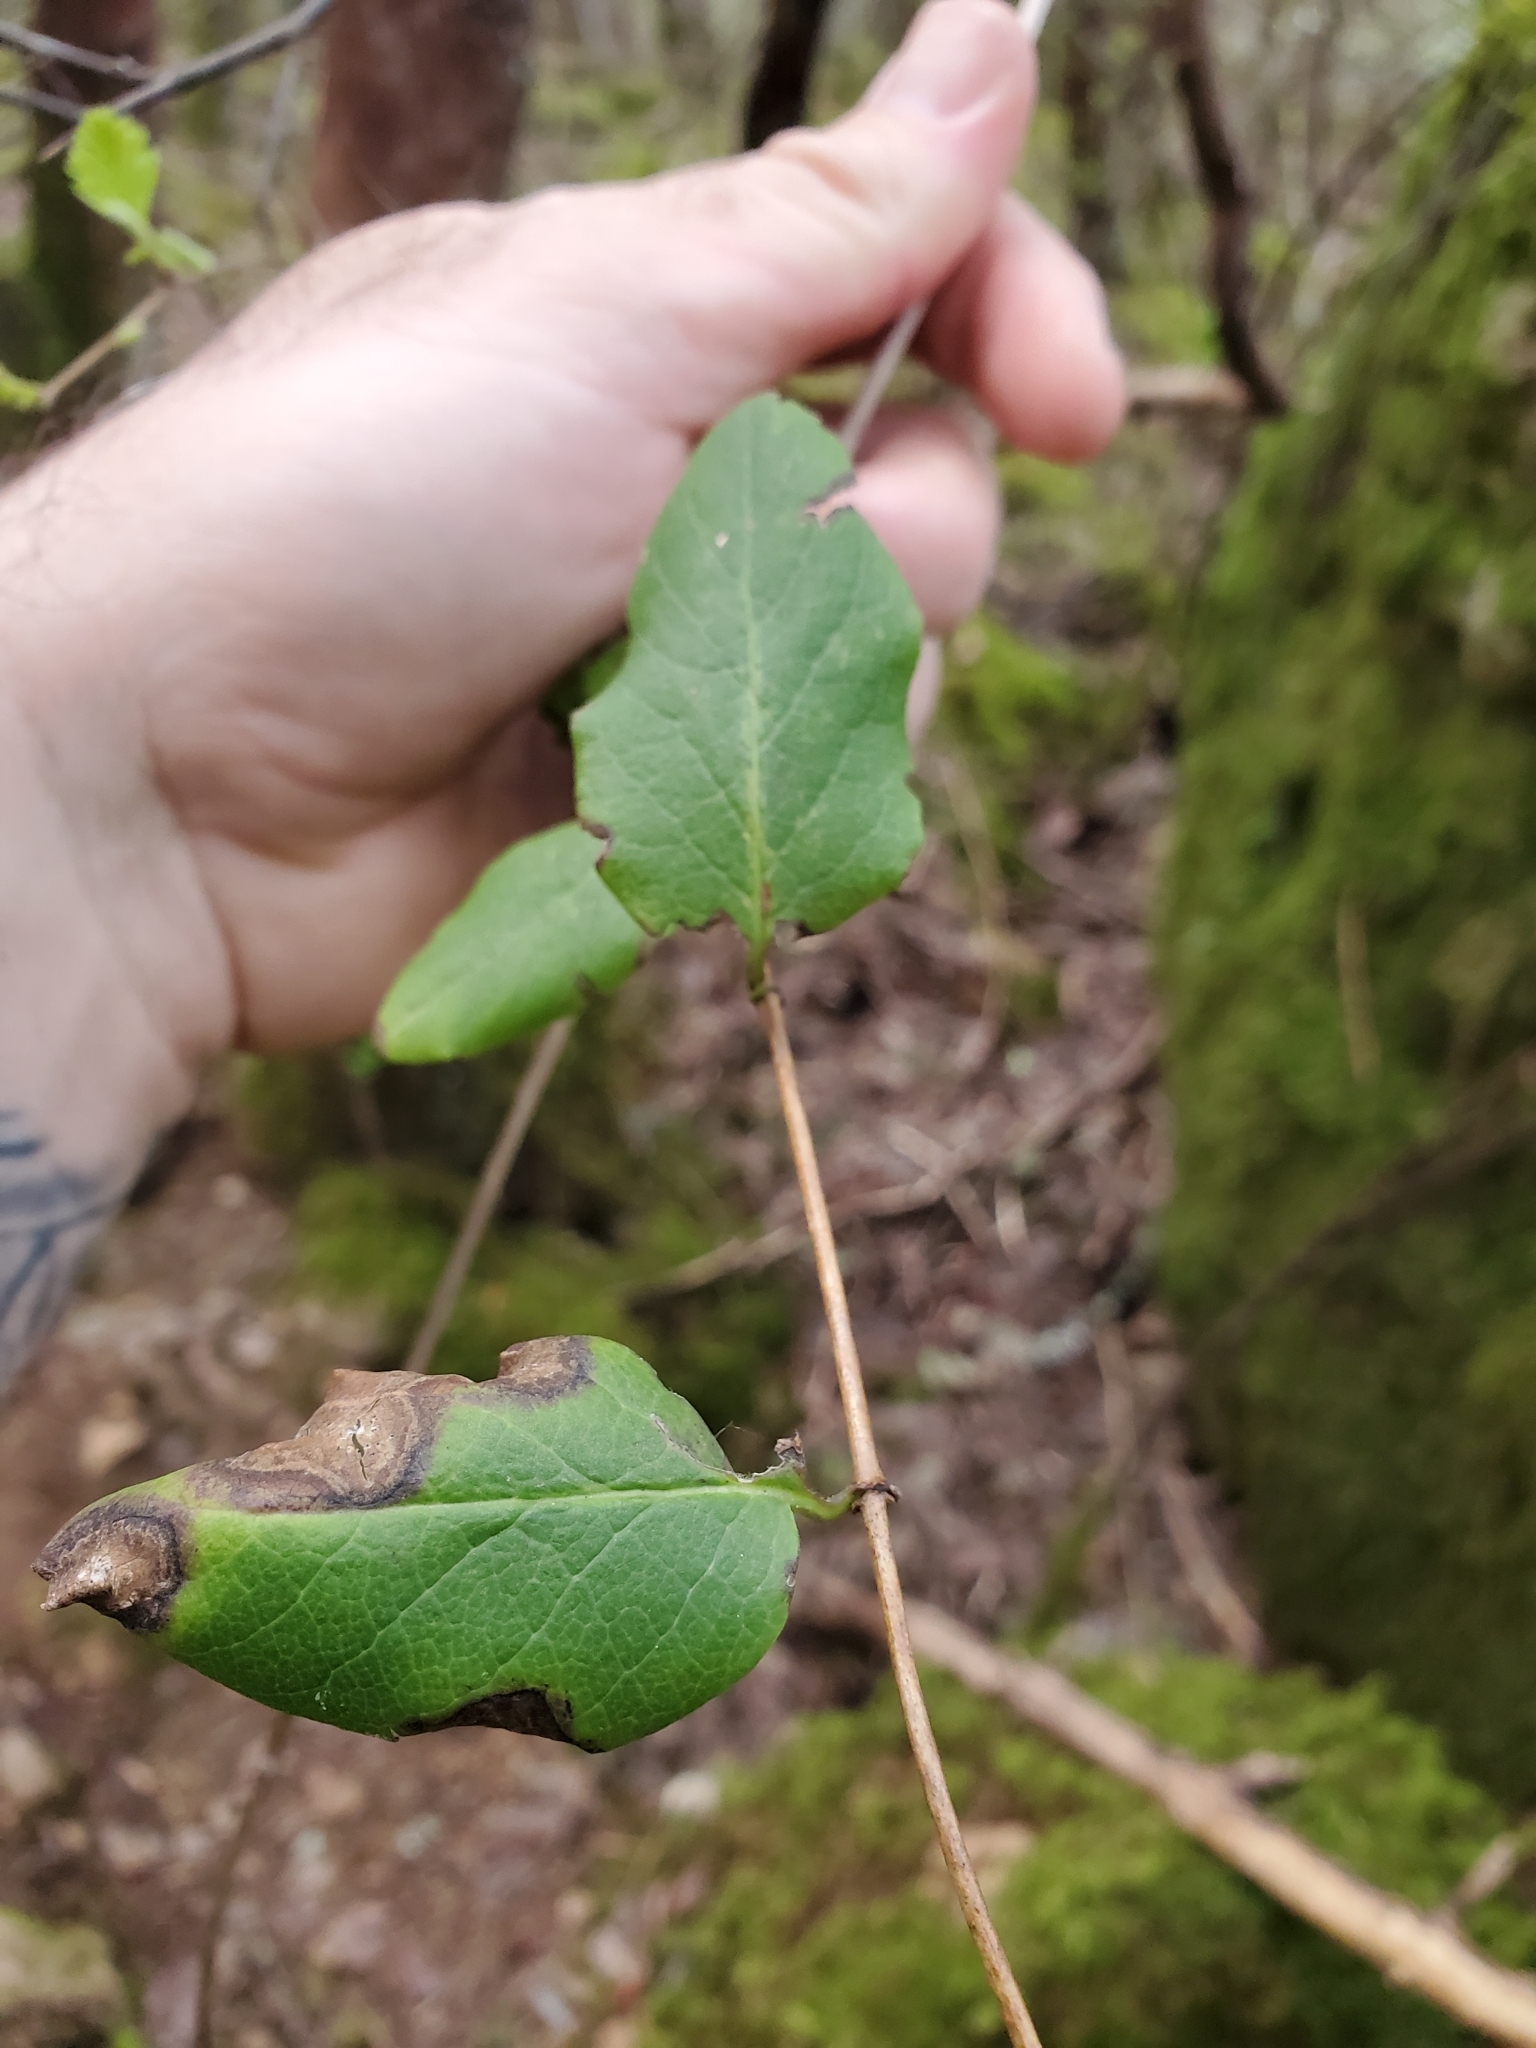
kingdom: Plantae
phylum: Tracheophyta
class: Magnoliopsida
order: Dipsacales
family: Caprifoliaceae
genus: Lonicera
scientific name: Lonicera hispidula
